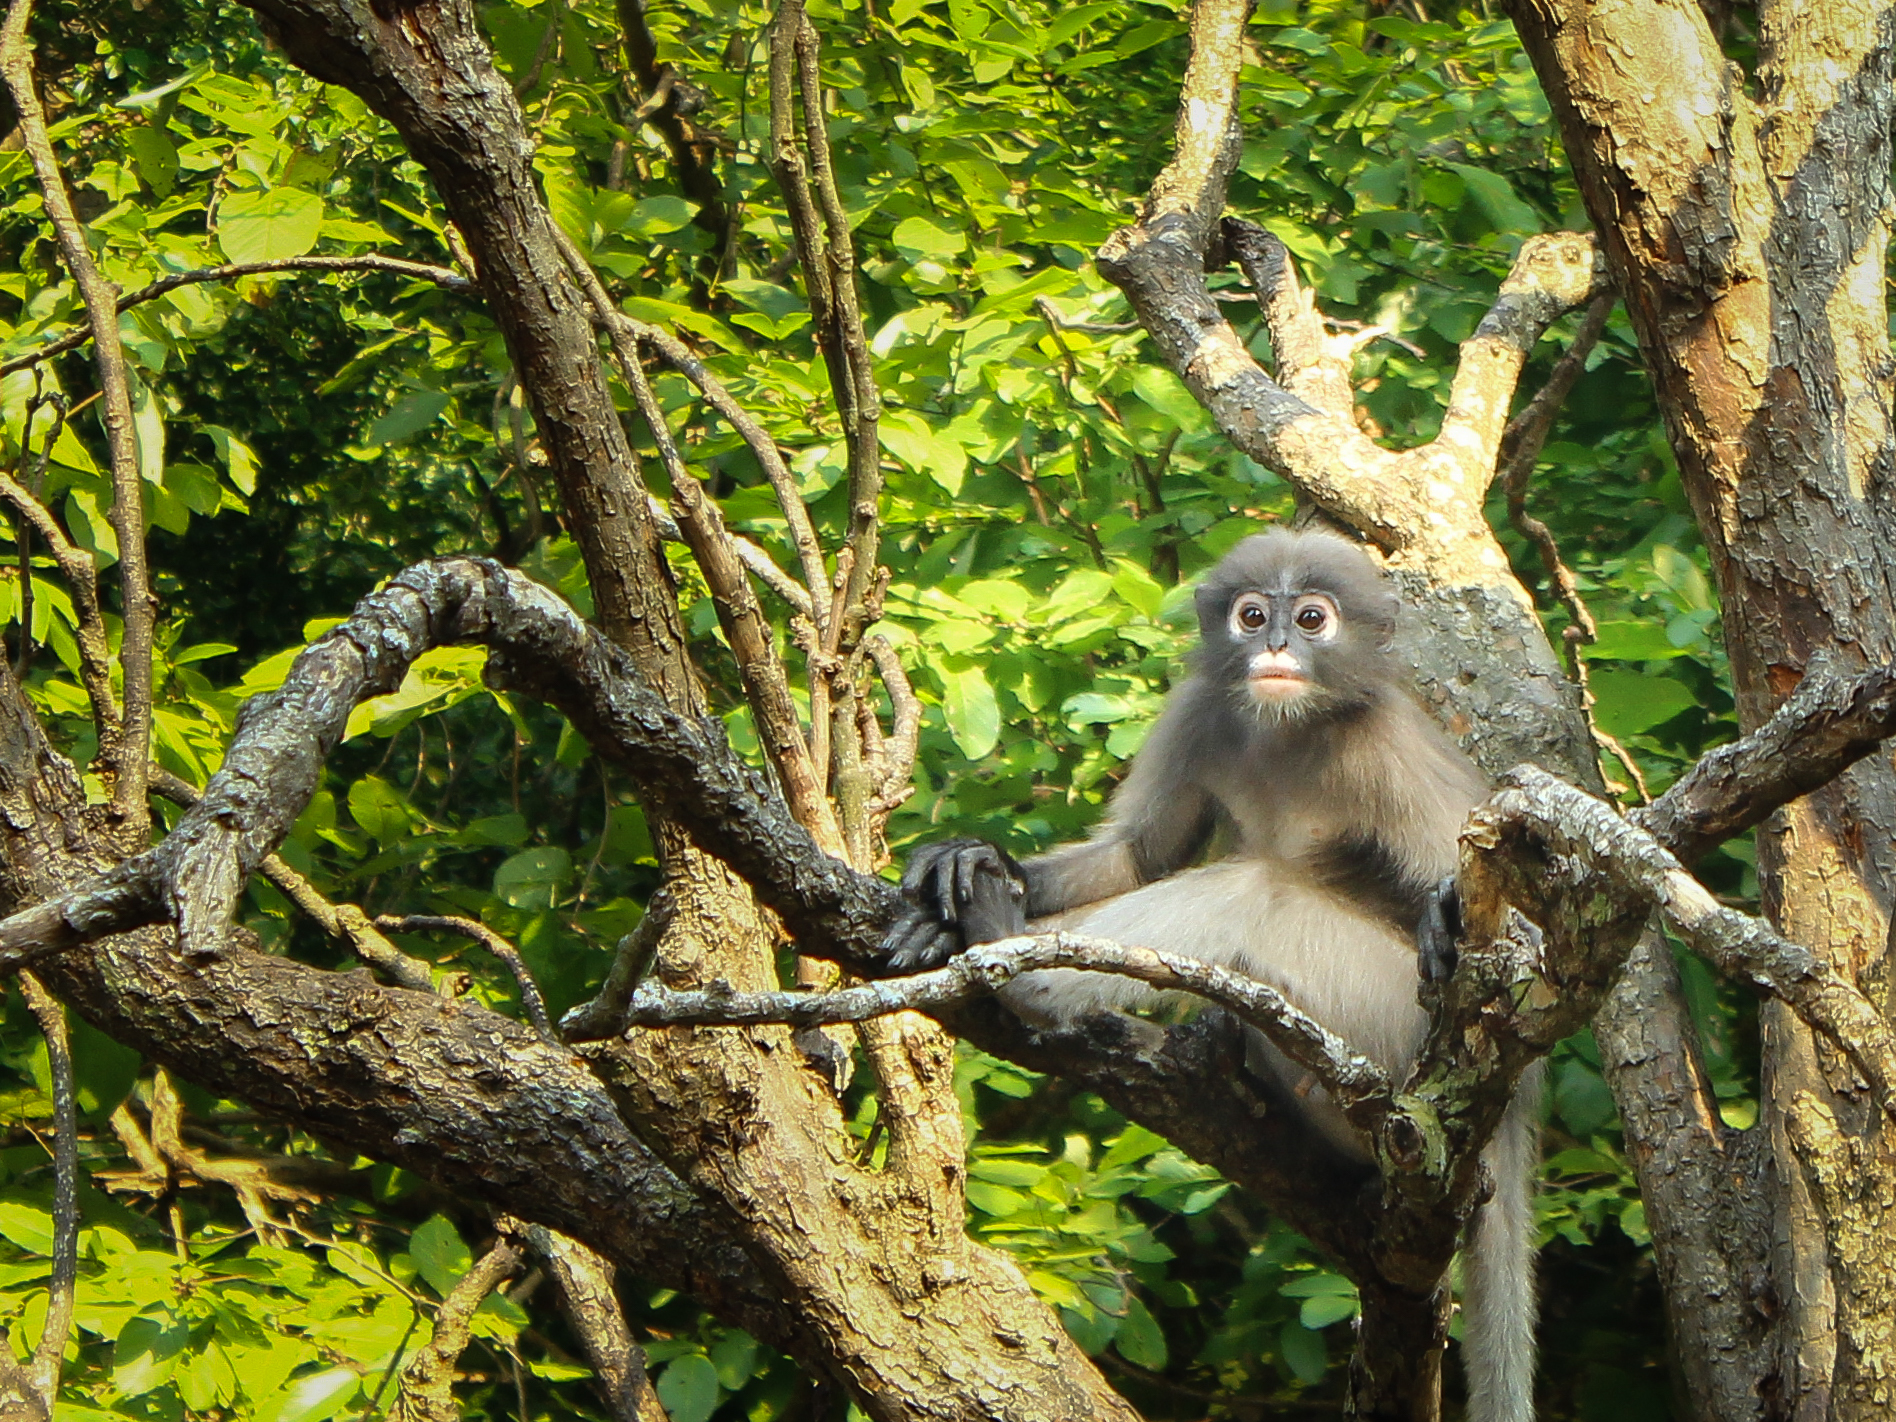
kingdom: Animalia
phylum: Chordata
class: Mammalia
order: Primates
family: Cercopithecidae
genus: Trachypithecus
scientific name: Trachypithecus obscurus
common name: Dusky leaf-monkey
